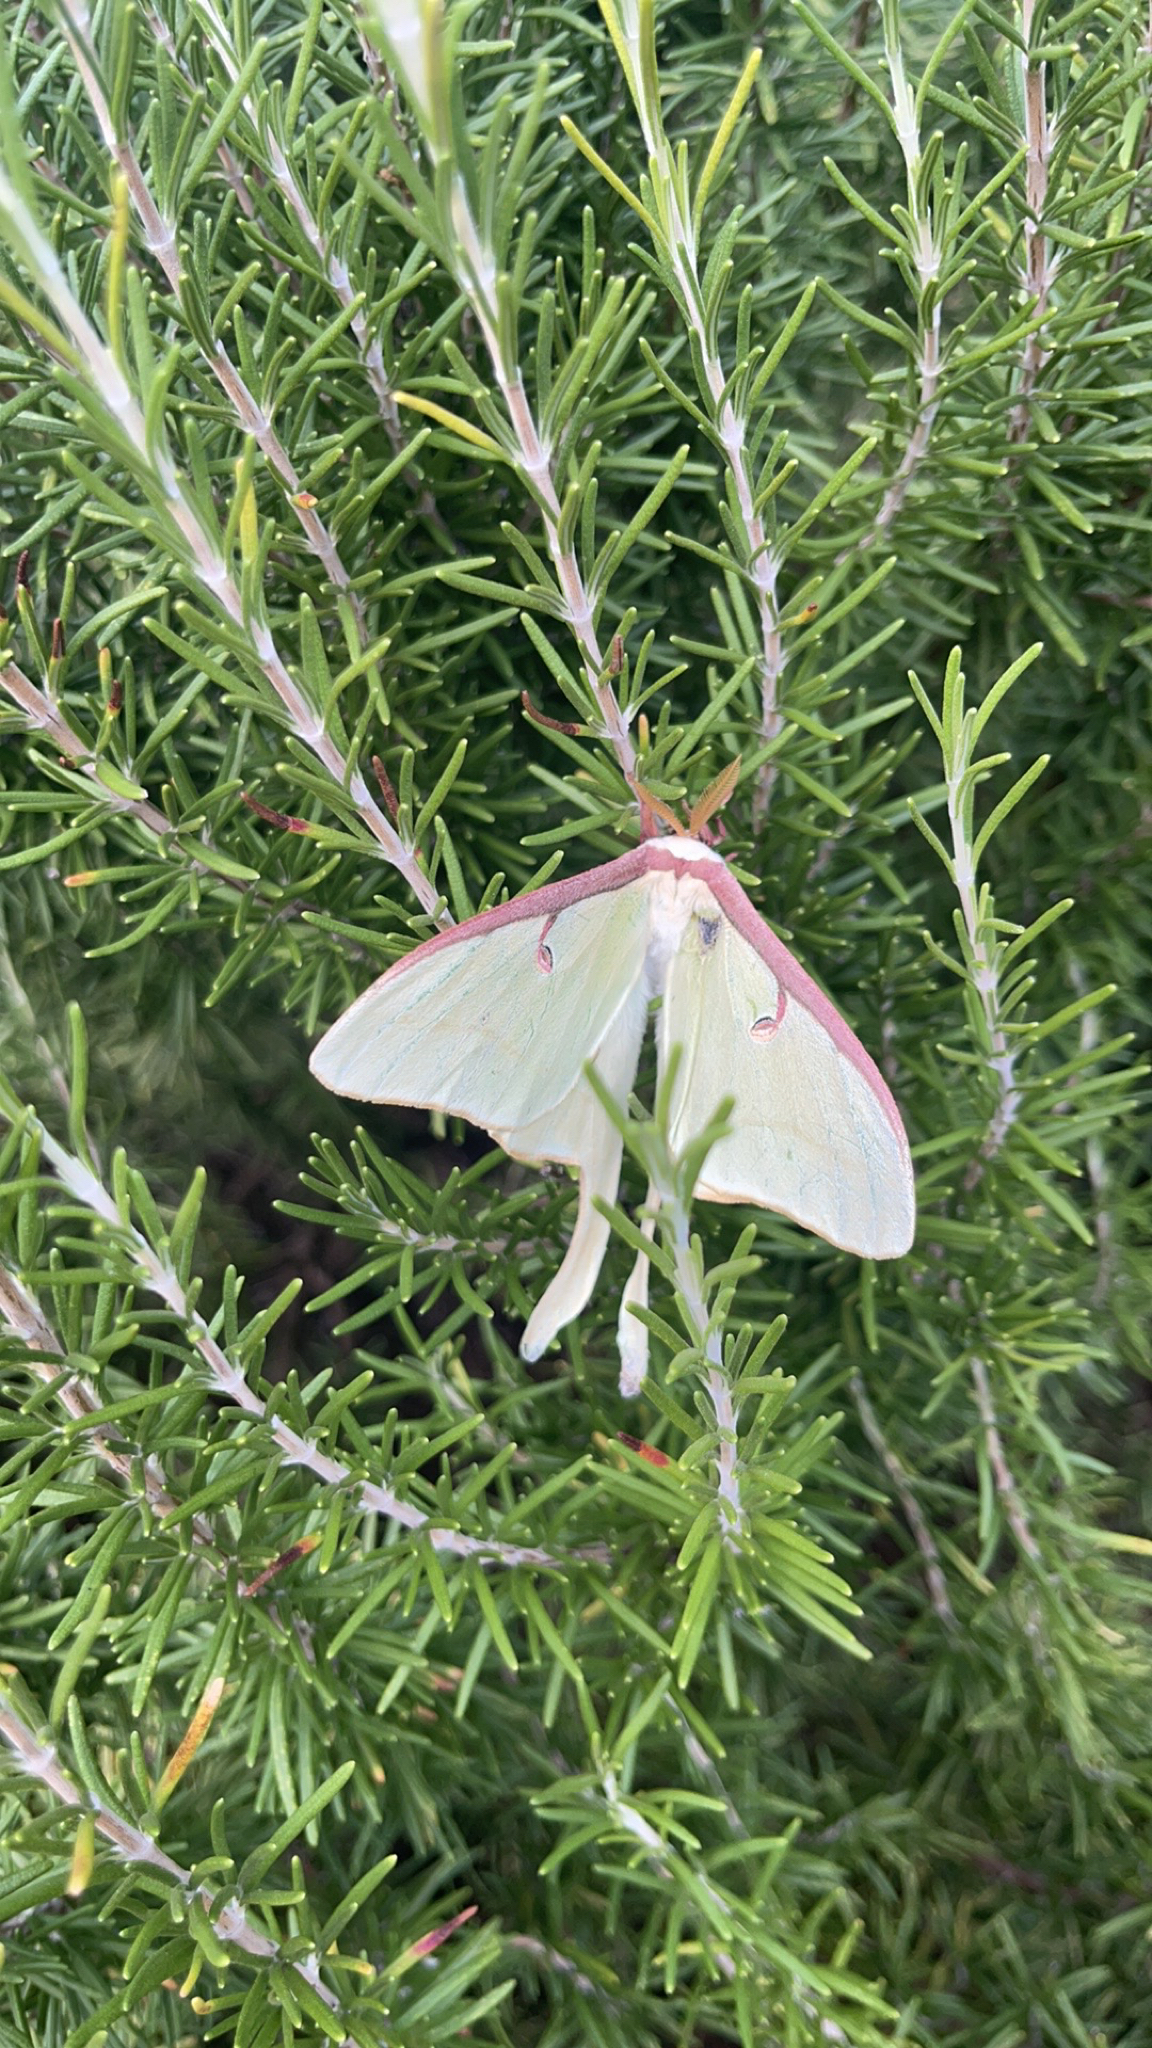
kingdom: Animalia
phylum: Arthropoda
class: Insecta
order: Lepidoptera
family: Saturniidae
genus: Actias
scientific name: Actias luna
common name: Luna moth
